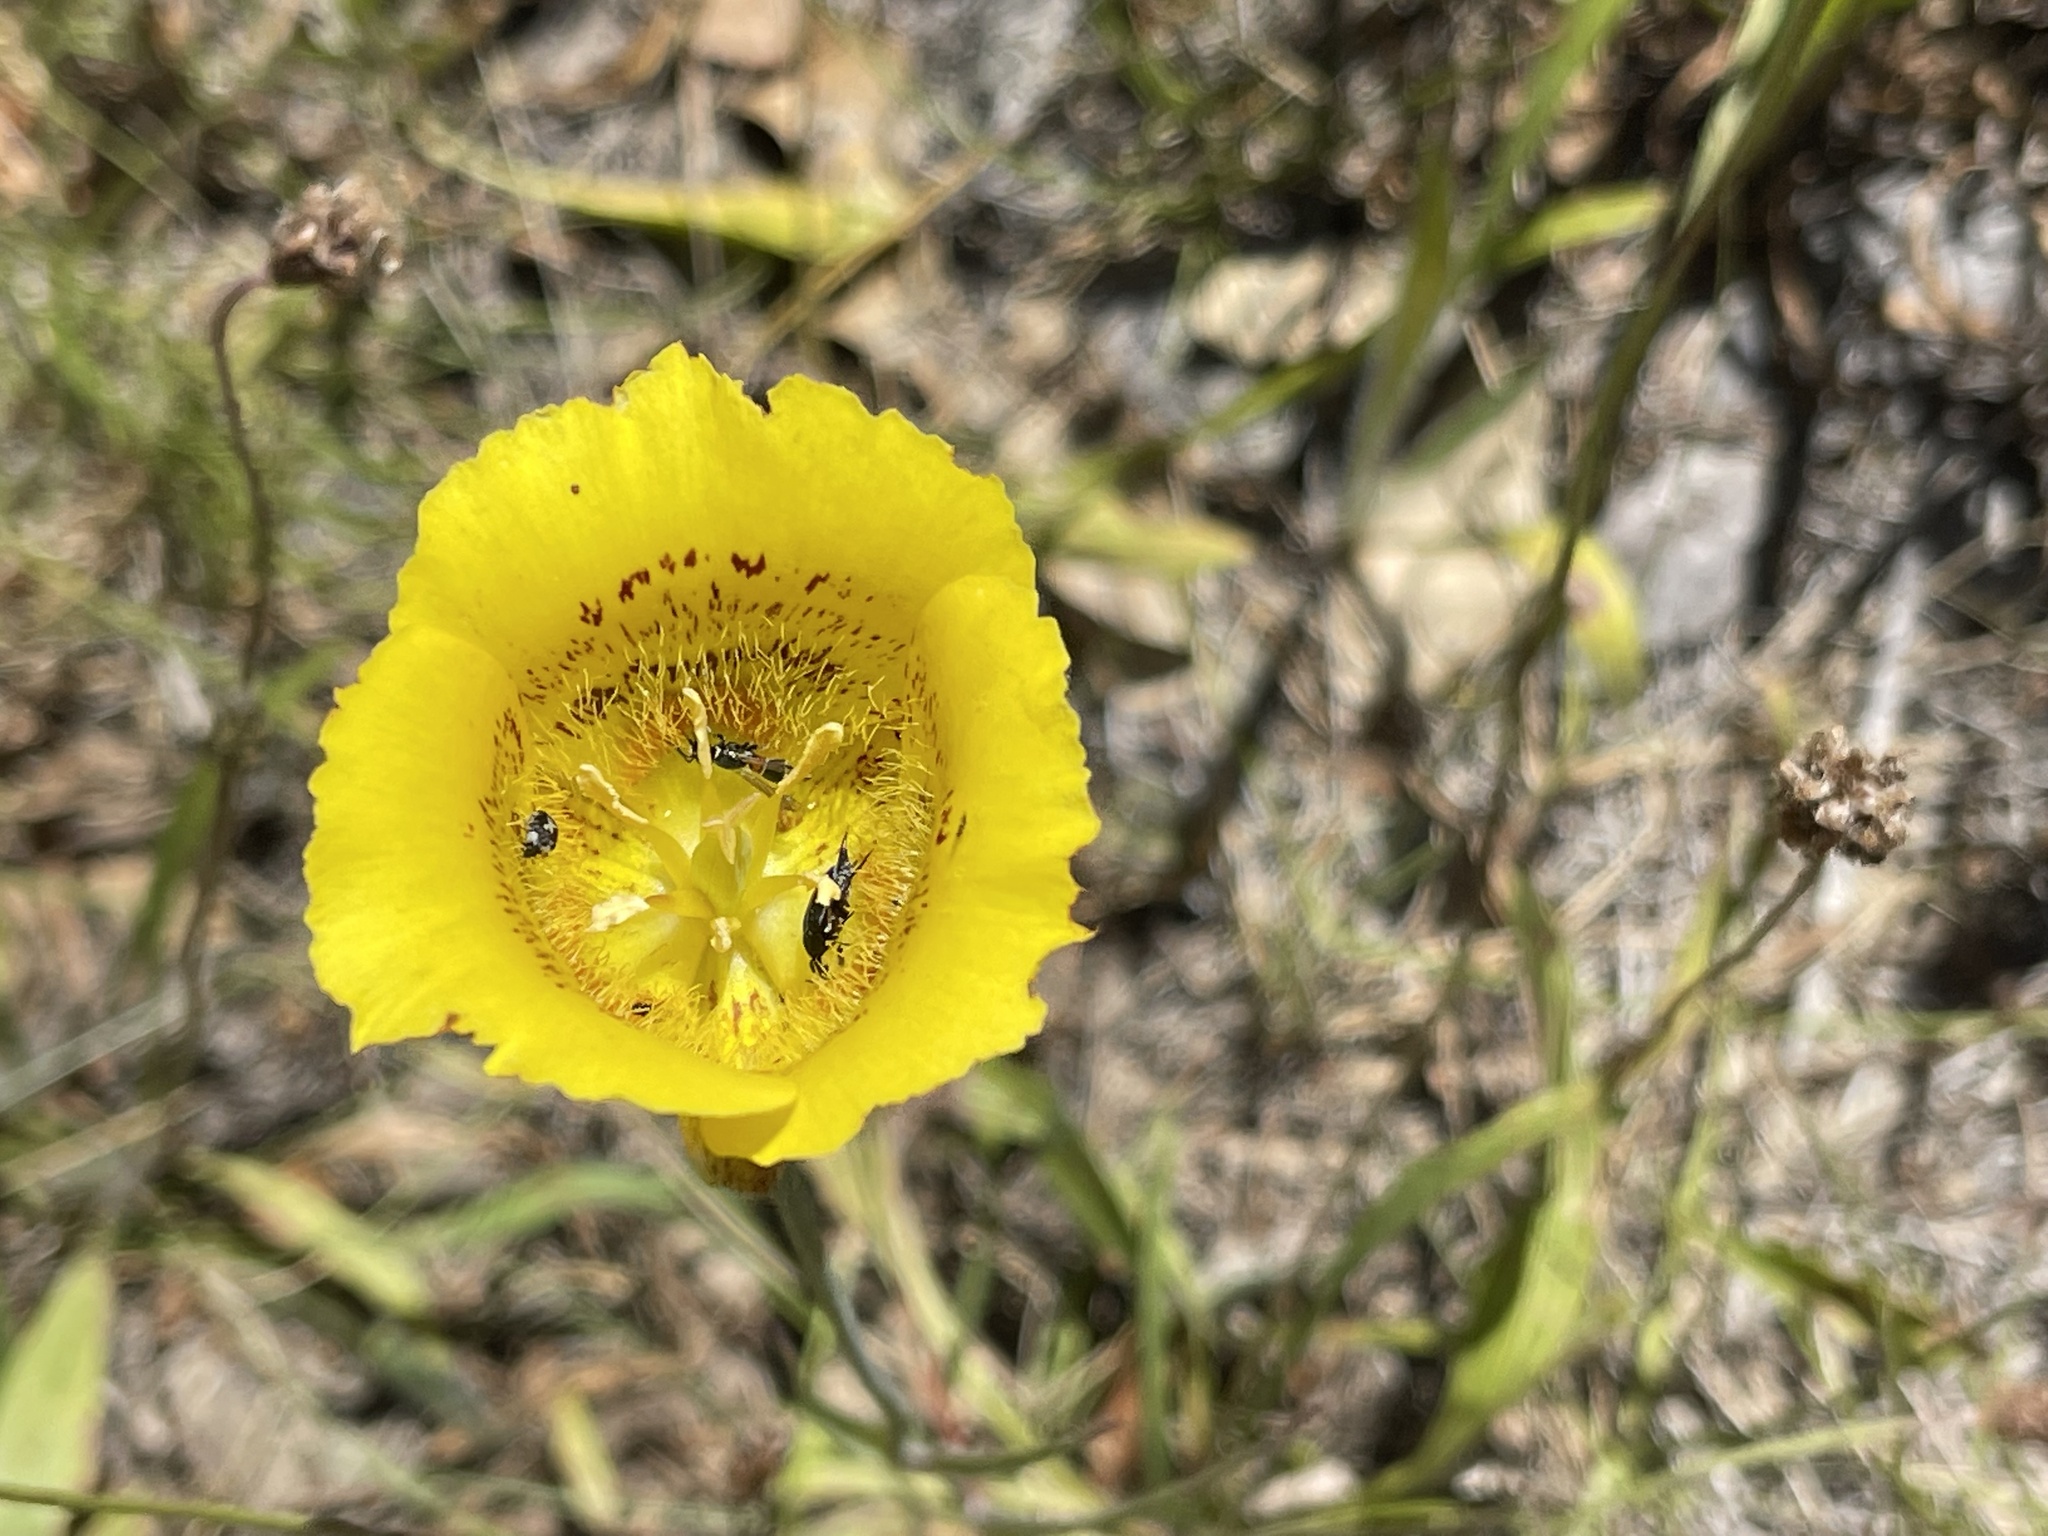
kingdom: Plantae
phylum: Tracheophyta
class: Liliopsida
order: Liliales
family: Liliaceae
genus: Calochortus
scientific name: Calochortus luteus
